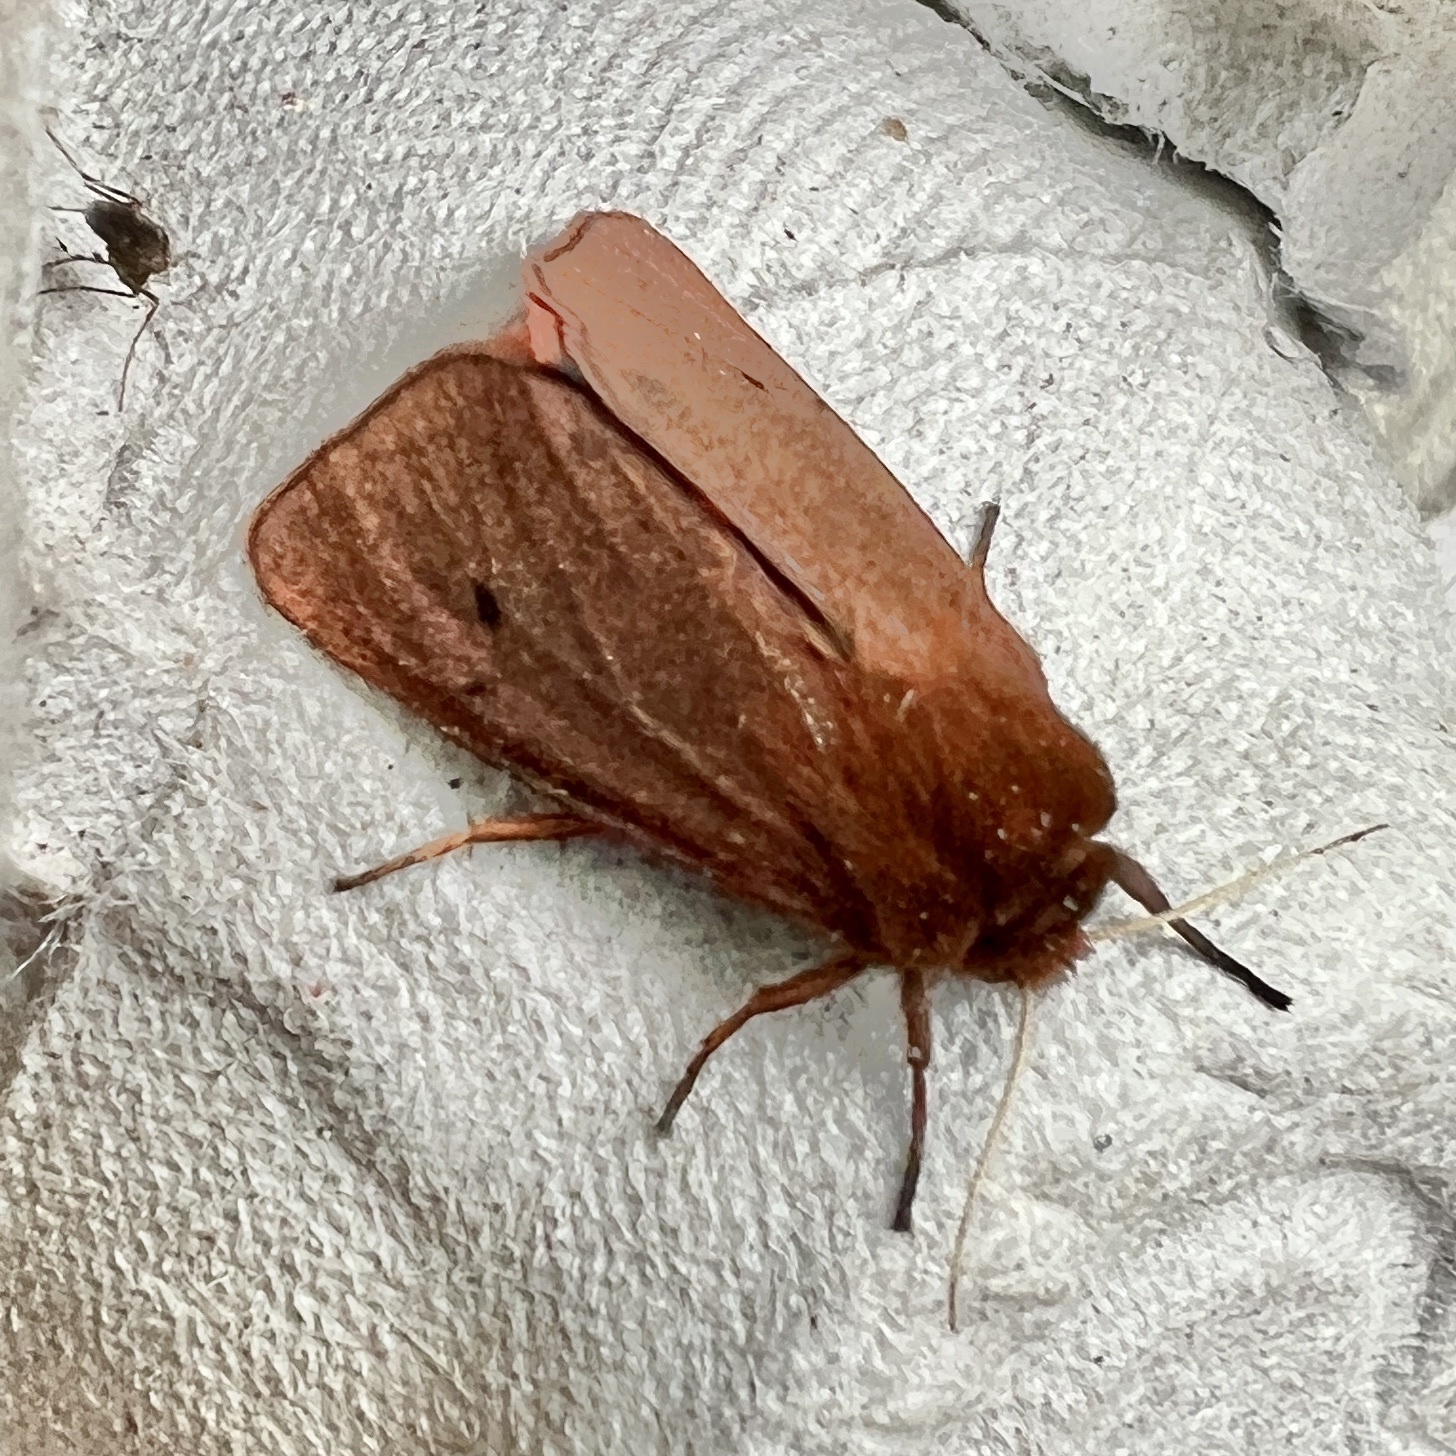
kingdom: Animalia
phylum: Arthropoda
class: Insecta
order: Lepidoptera
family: Erebidae
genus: Phragmatobia
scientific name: Phragmatobia fuliginosa
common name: Ruby tiger
